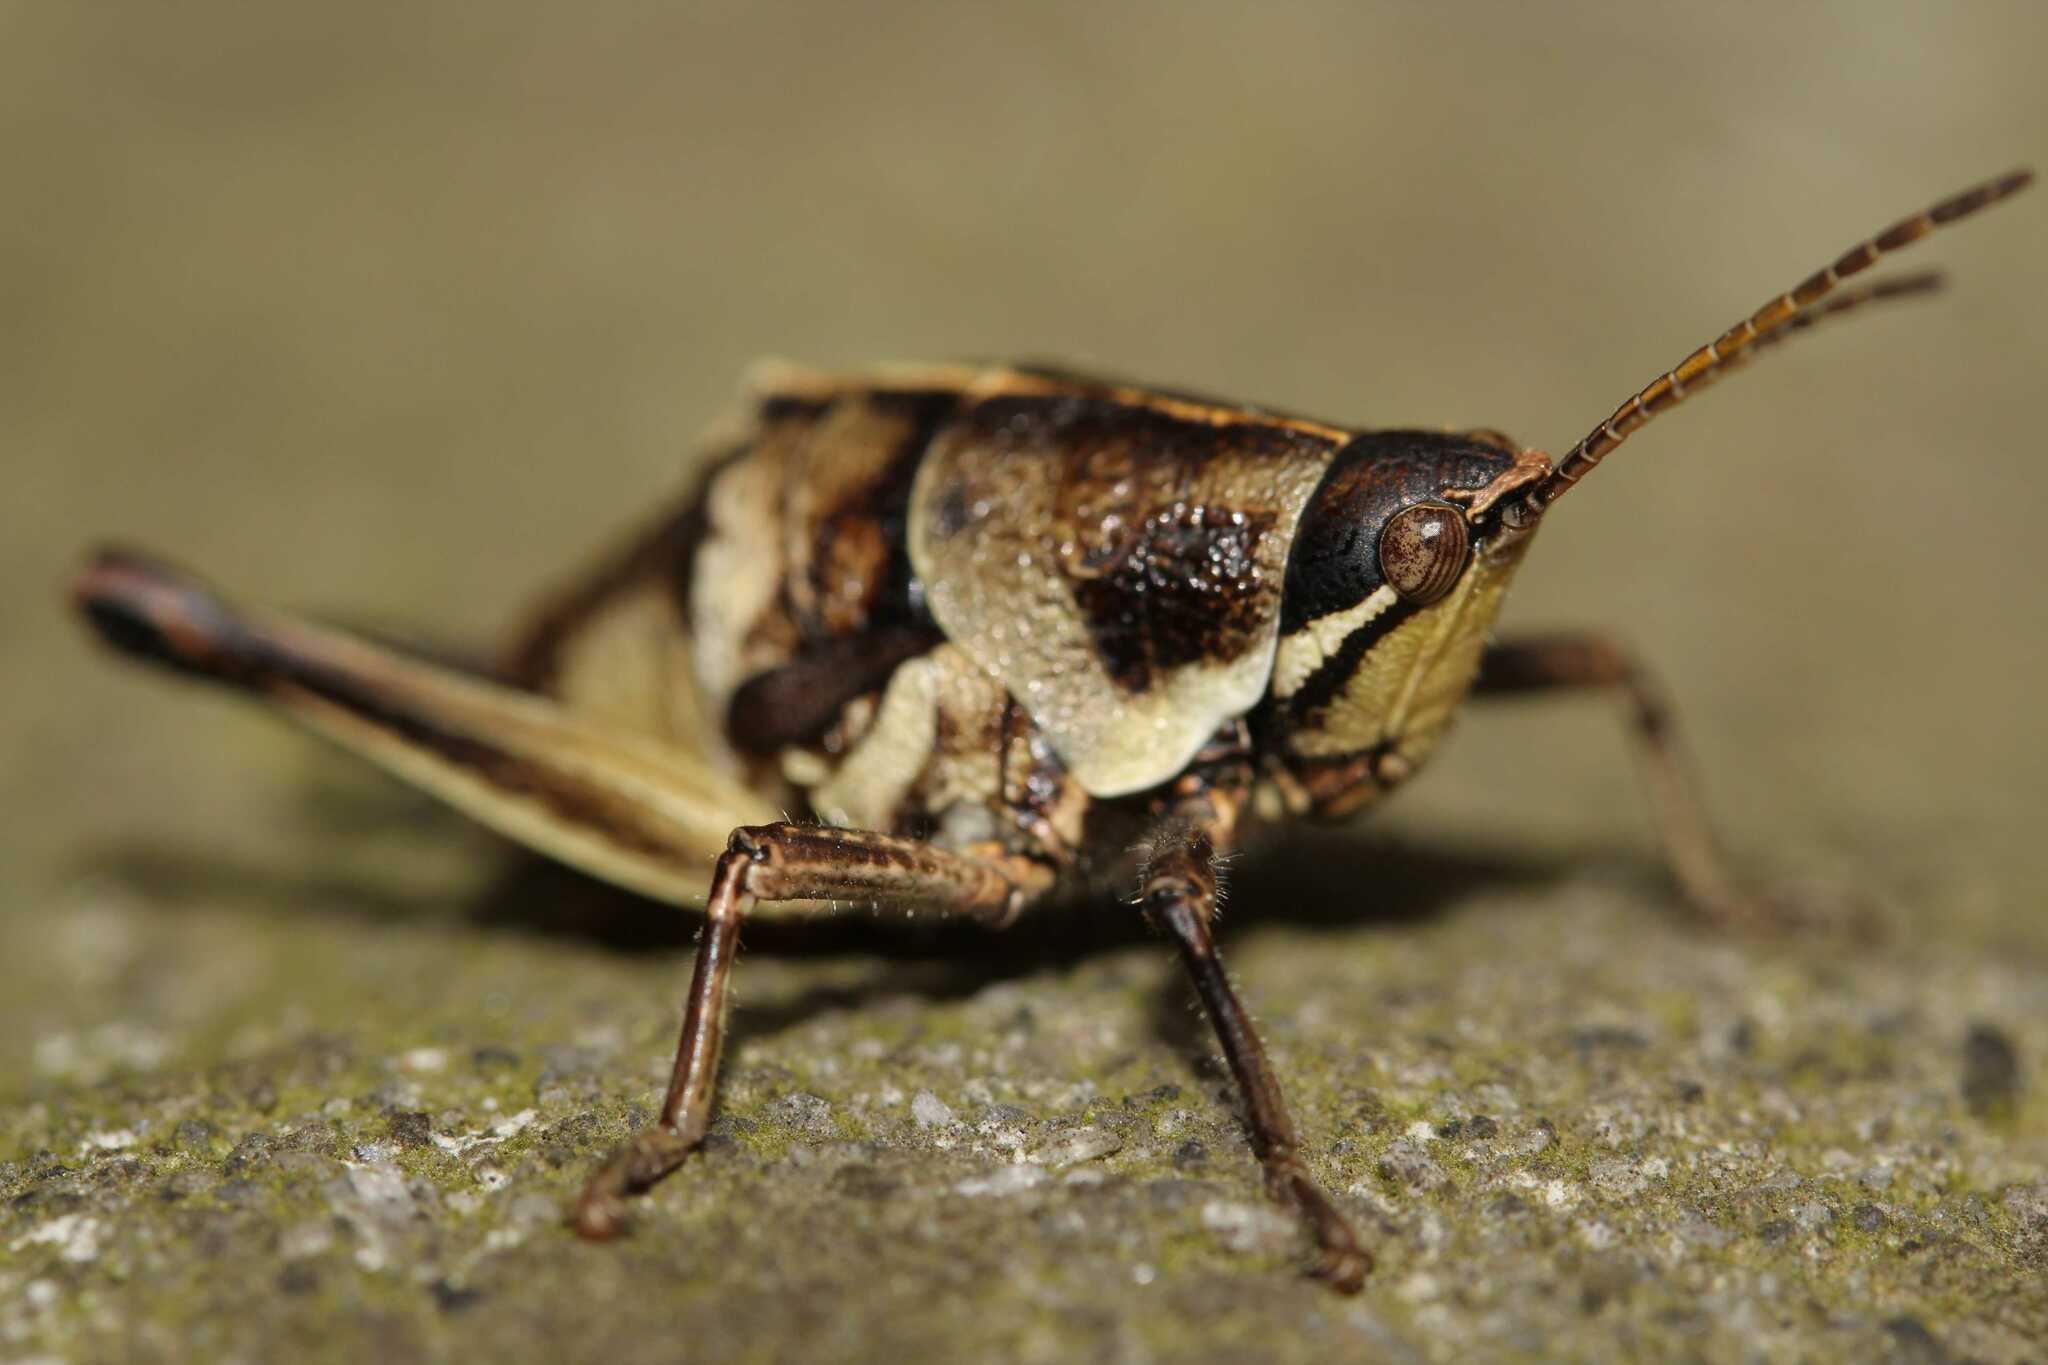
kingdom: Animalia
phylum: Arthropoda
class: Insecta
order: Orthoptera
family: Pyrgomorphidae
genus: Sphenarium
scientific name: Sphenarium purpurascens
